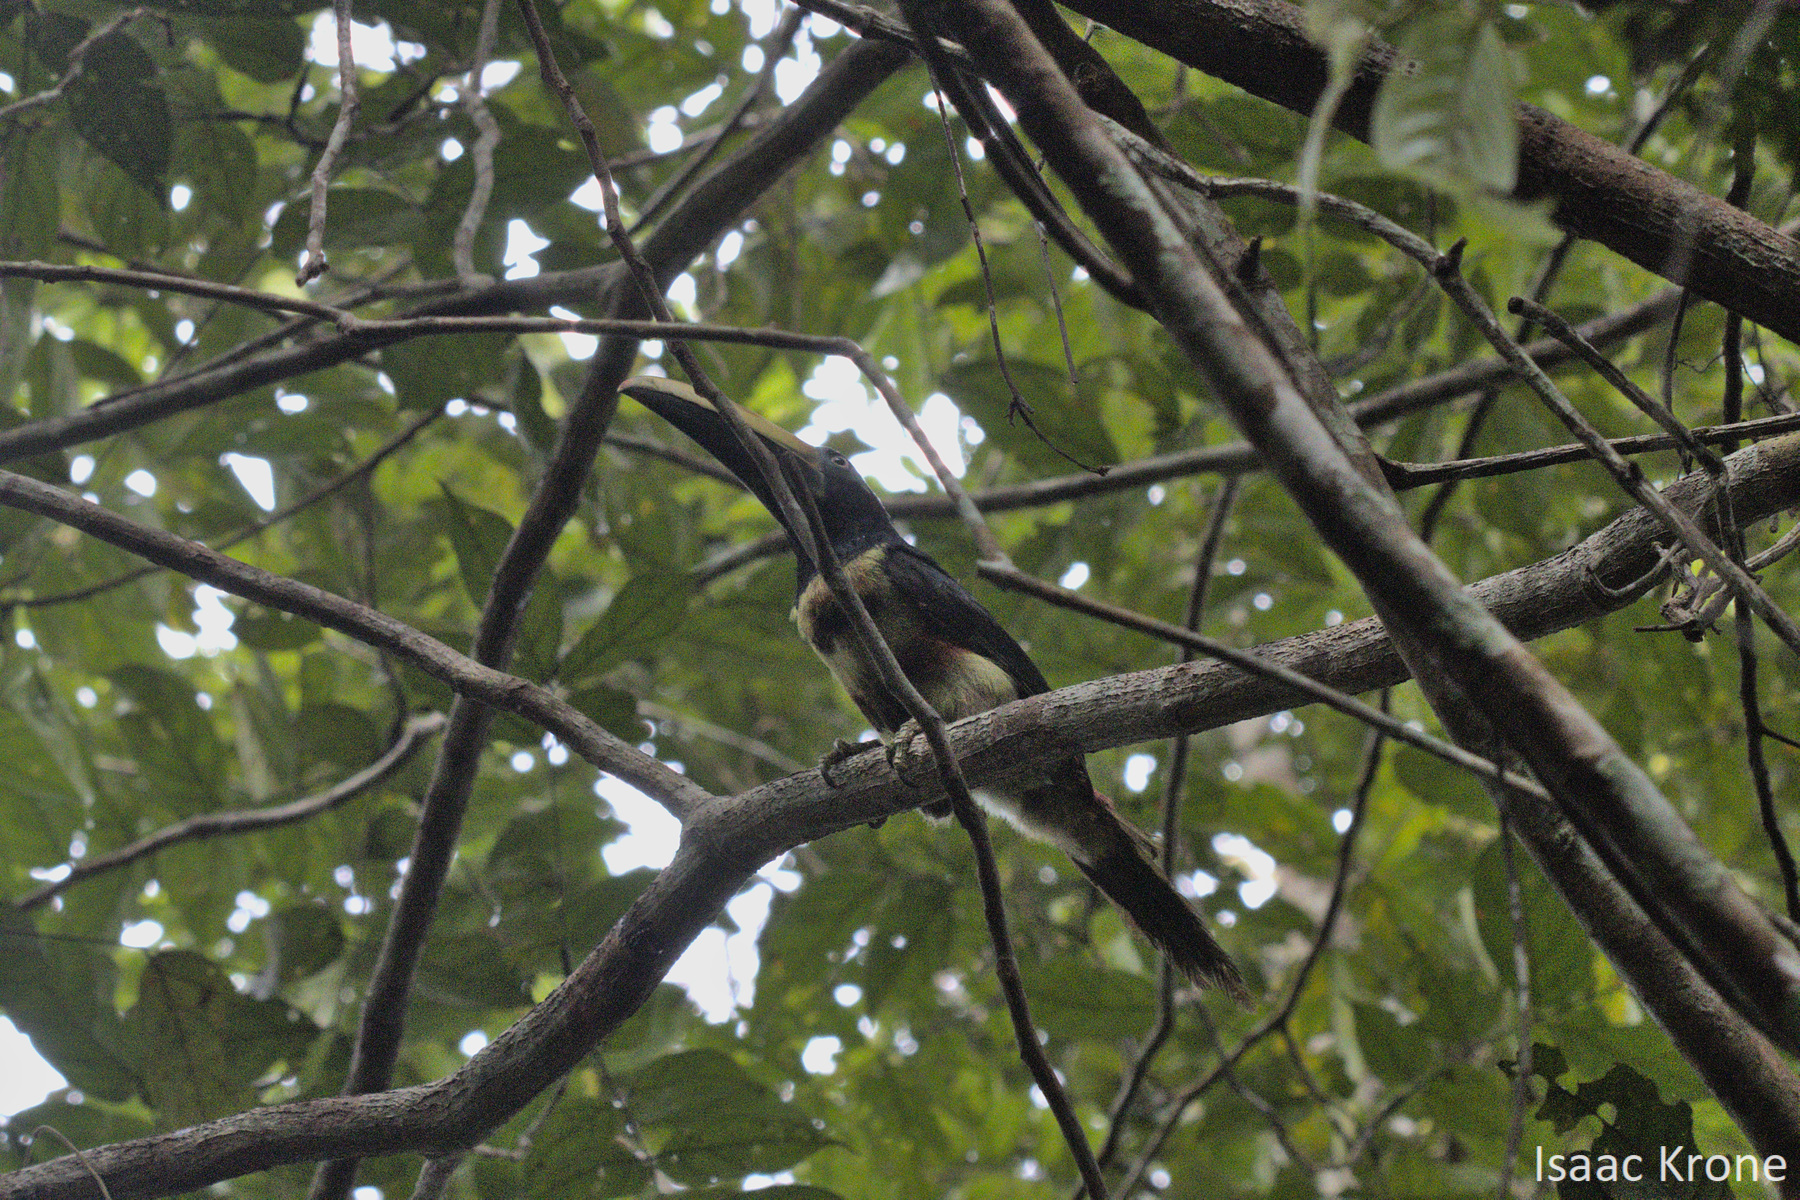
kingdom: Animalia
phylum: Chordata
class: Aves
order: Piciformes
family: Ramphastidae
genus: Pteroglossus
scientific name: Pteroglossus pluricinctus
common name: Many-banded aracari
